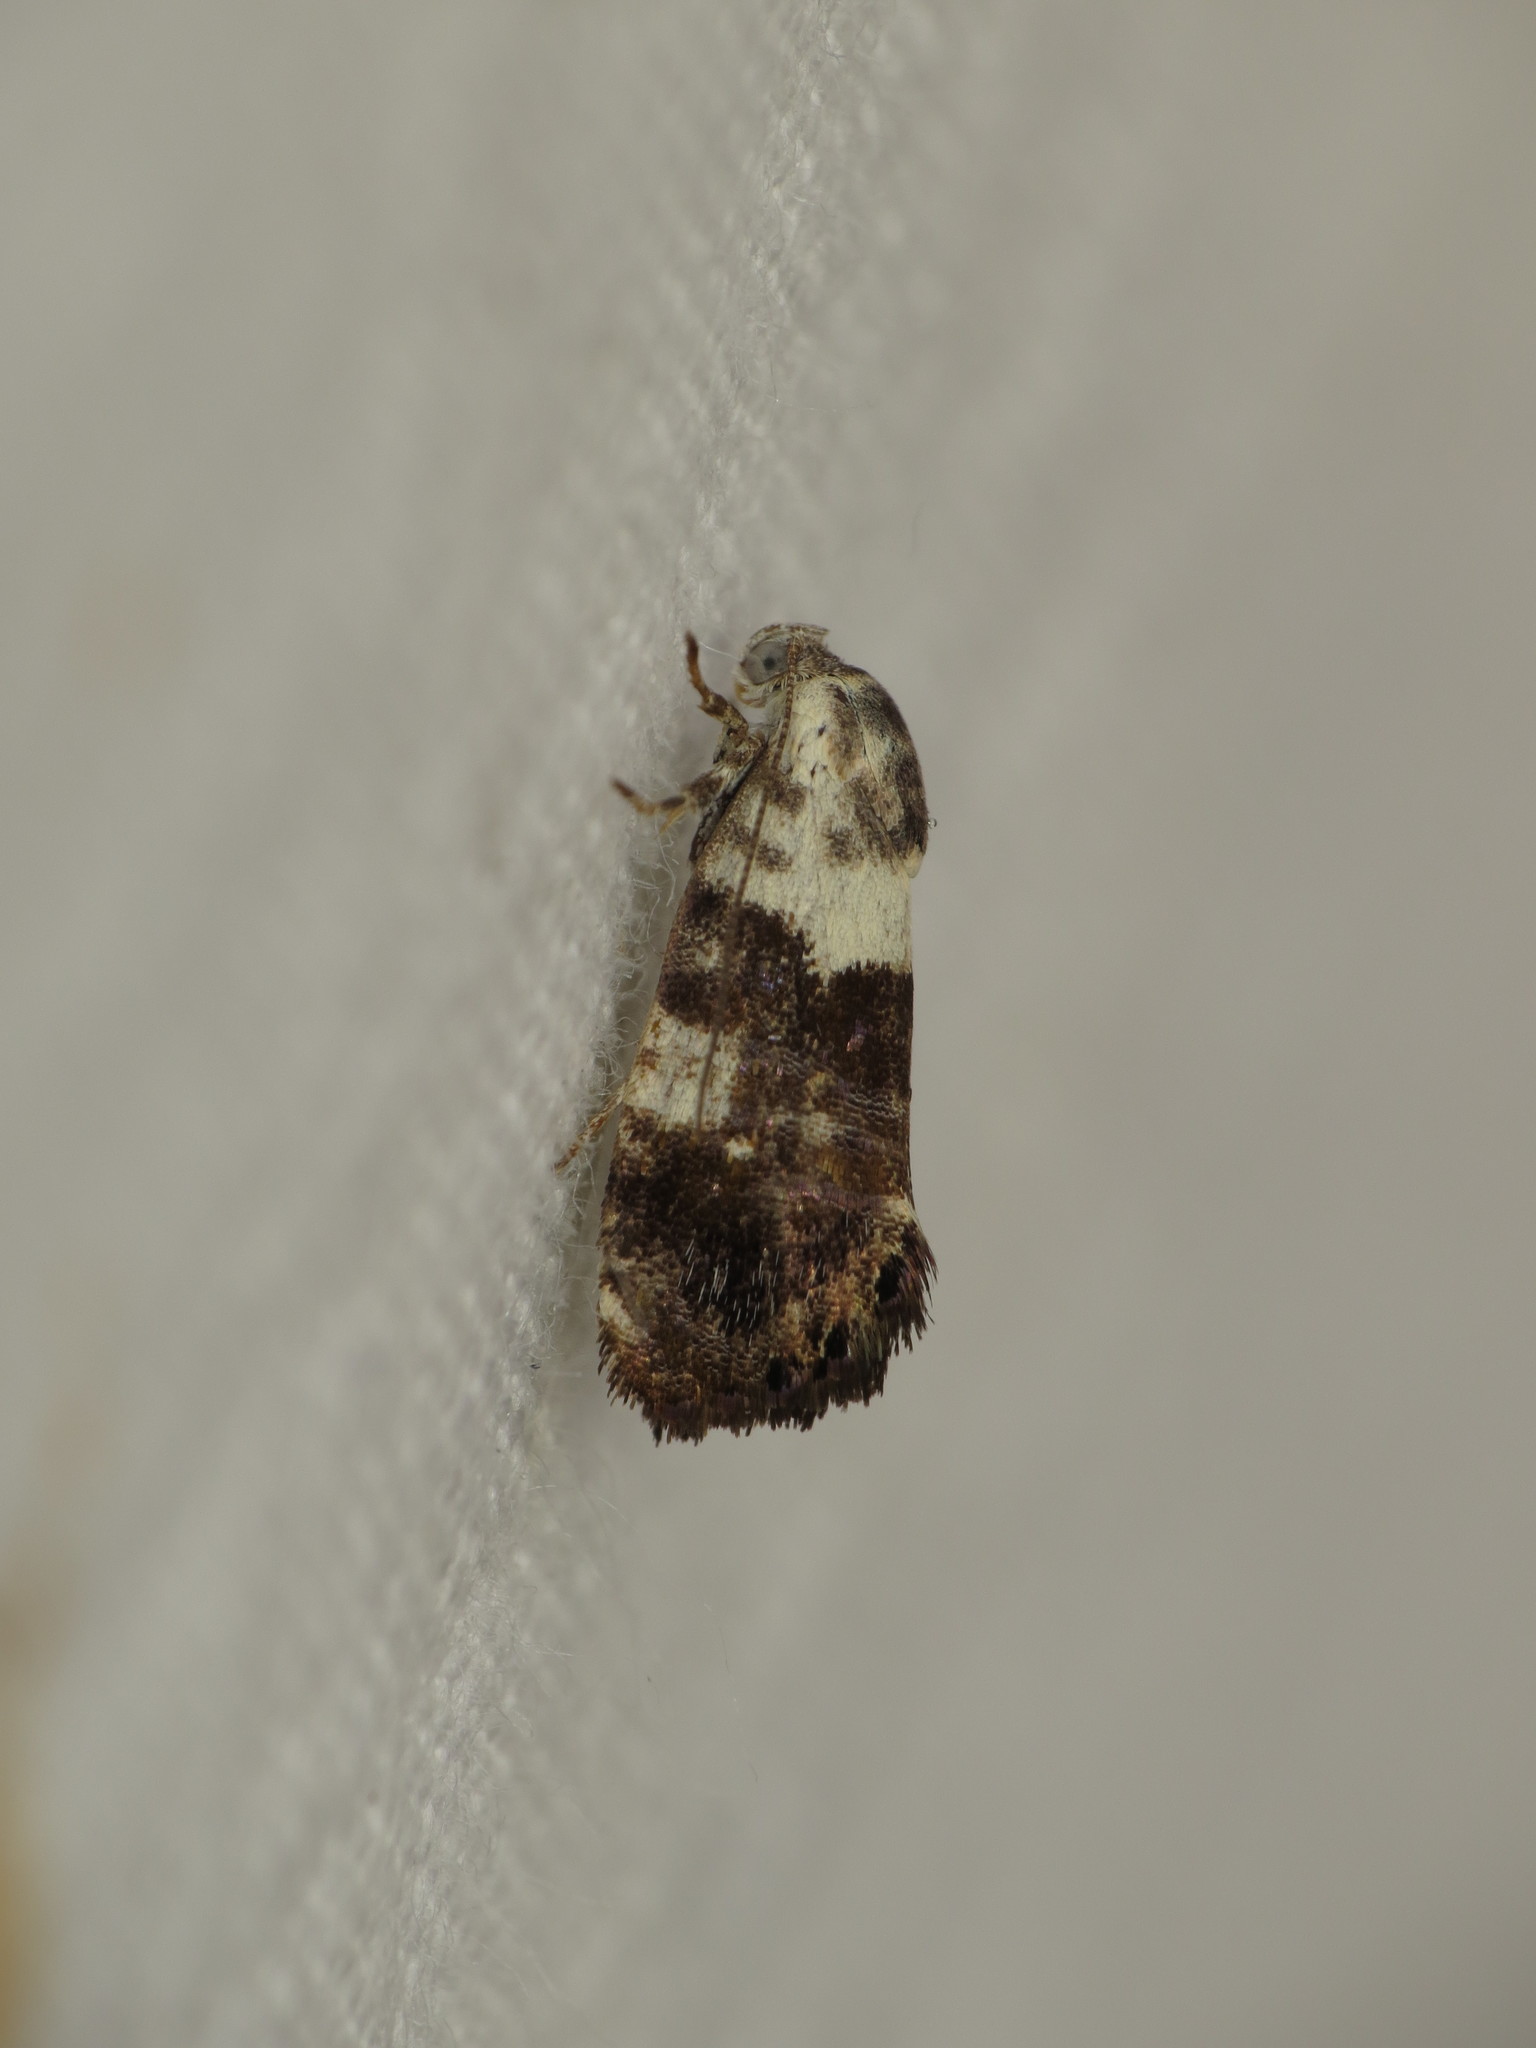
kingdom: Animalia
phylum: Arthropoda
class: Insecta
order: Lepidoptera
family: Depressariidae
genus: Eupselia
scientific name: Eupselia aristonica
